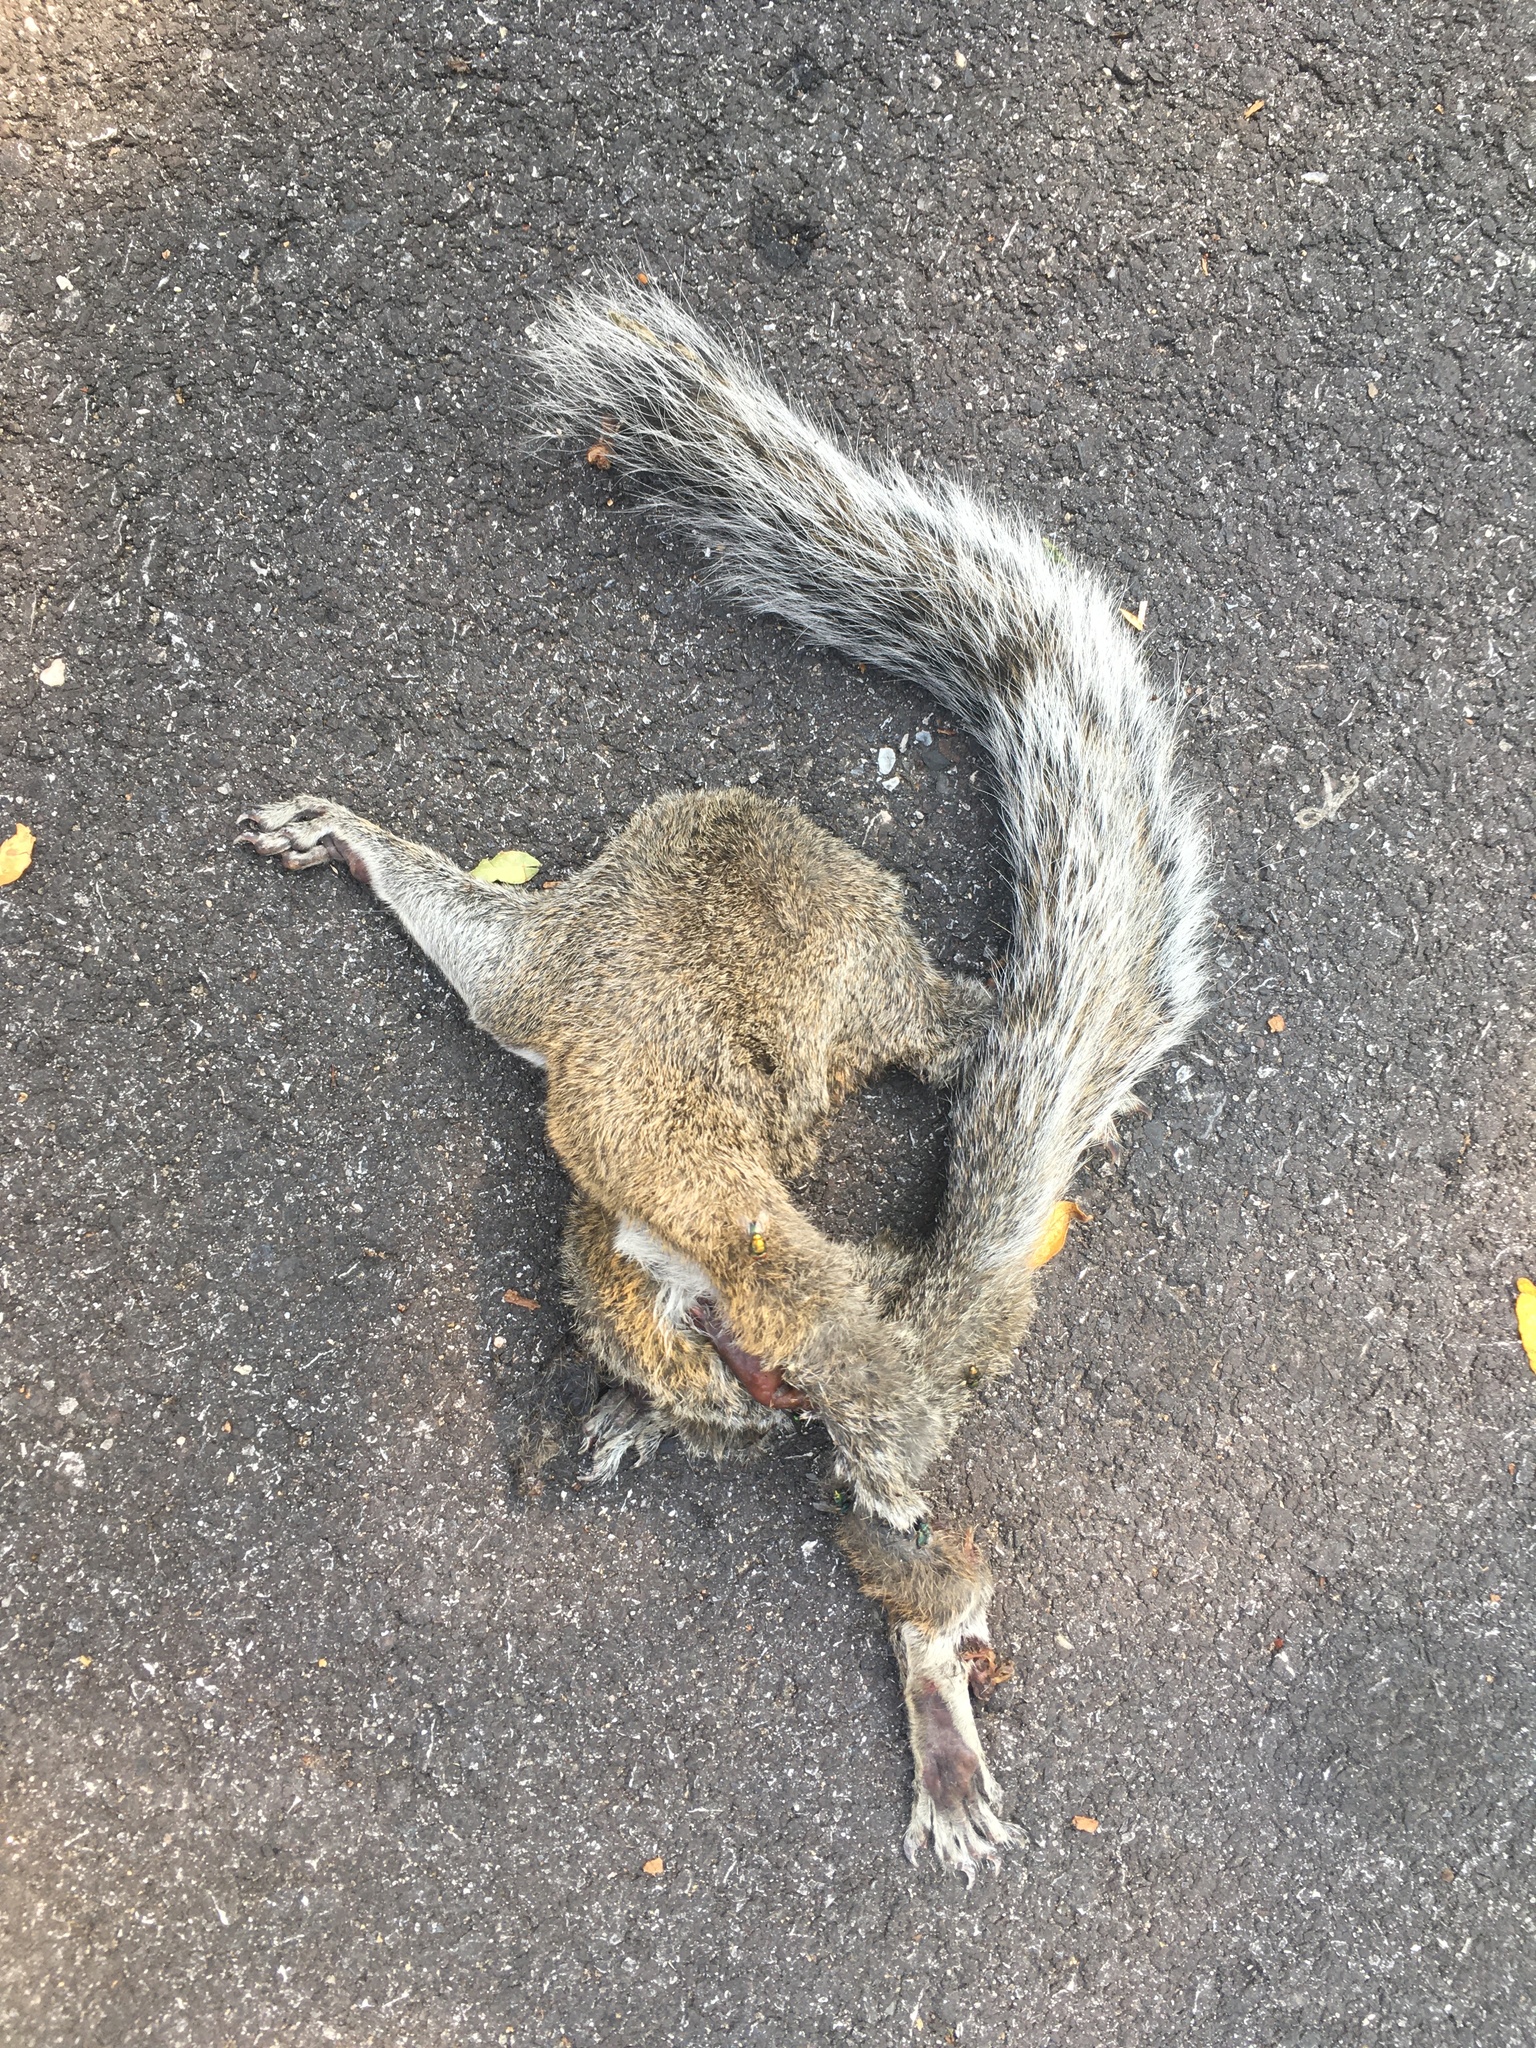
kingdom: Animalia
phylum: Chordata
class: Mammalia
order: Rodentia
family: Sciuridae
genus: Sciurus
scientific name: Sciurus carolinensis
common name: Eastern gray squirrel
